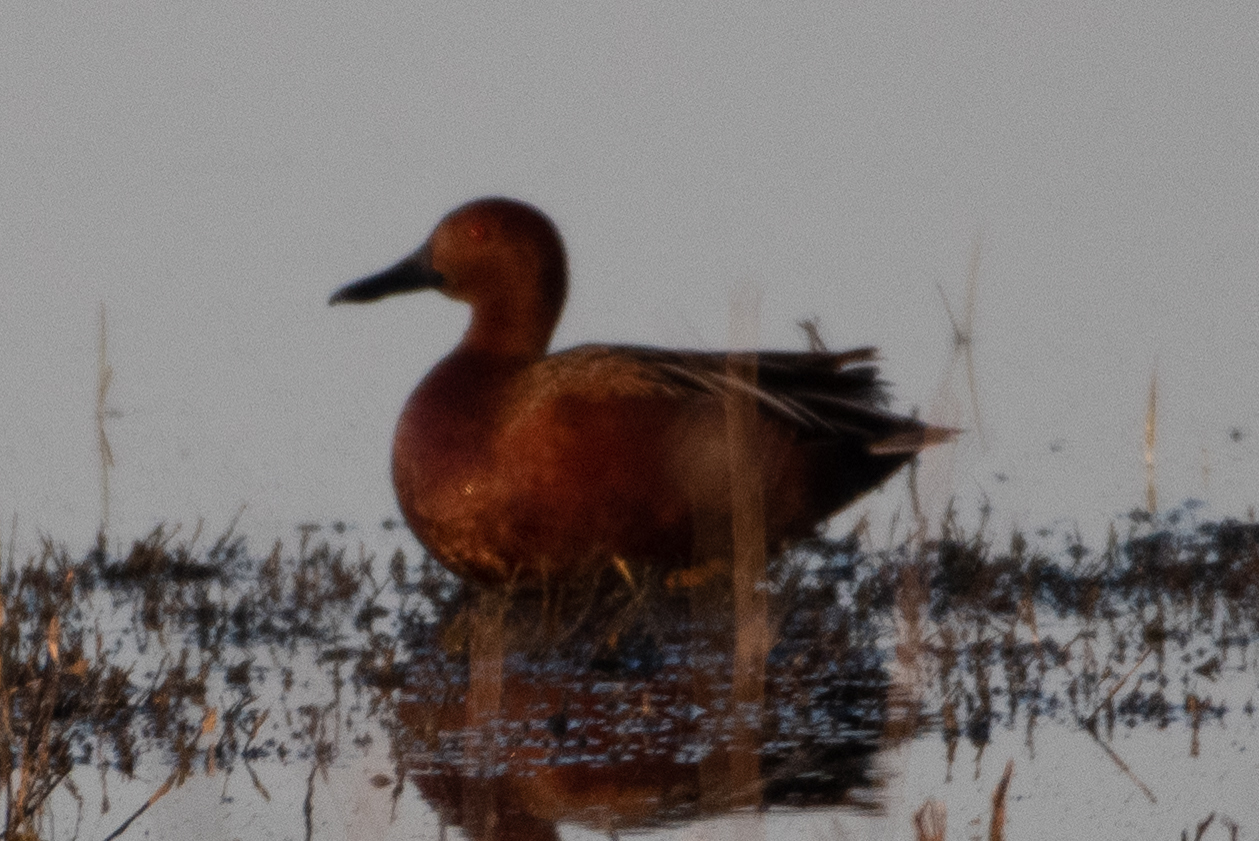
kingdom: Animalia
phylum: Chordata
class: Aves
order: Anseriformes
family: Anatidae
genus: Spatula
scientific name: Spatula cyanoptera
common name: Cinnamon teal
